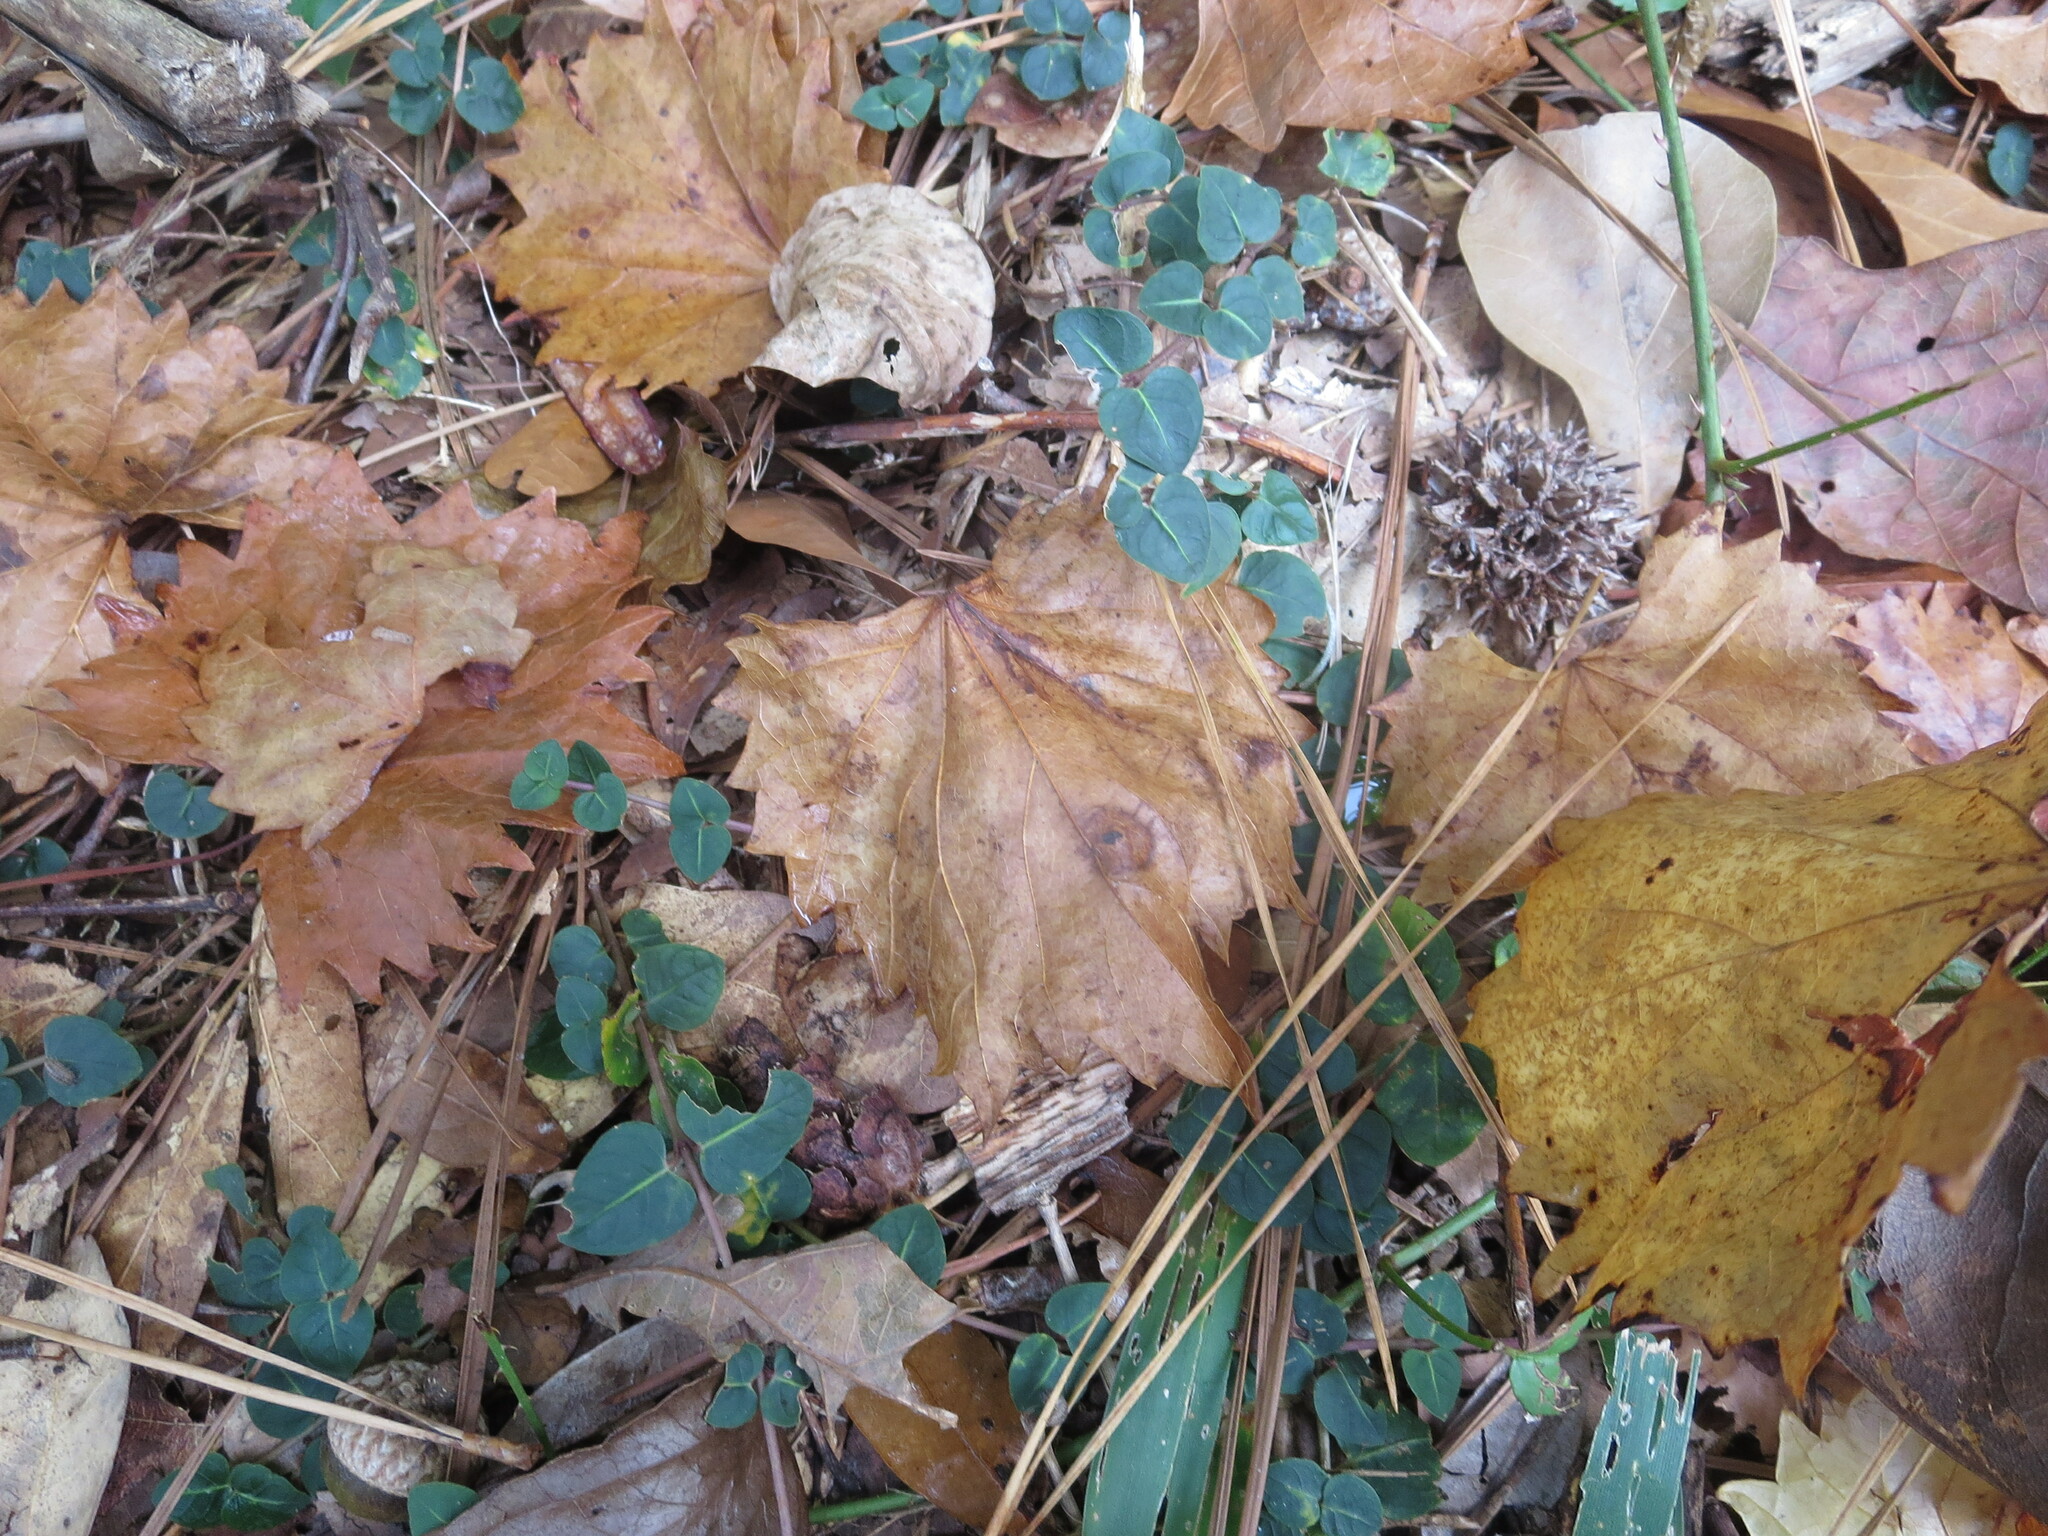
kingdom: Plantae
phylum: Tracheophyta
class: Magnoliopsida
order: Gentianales
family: Rubiaceae
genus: Mitchella
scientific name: Mitchella repens
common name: Partridge-berry
